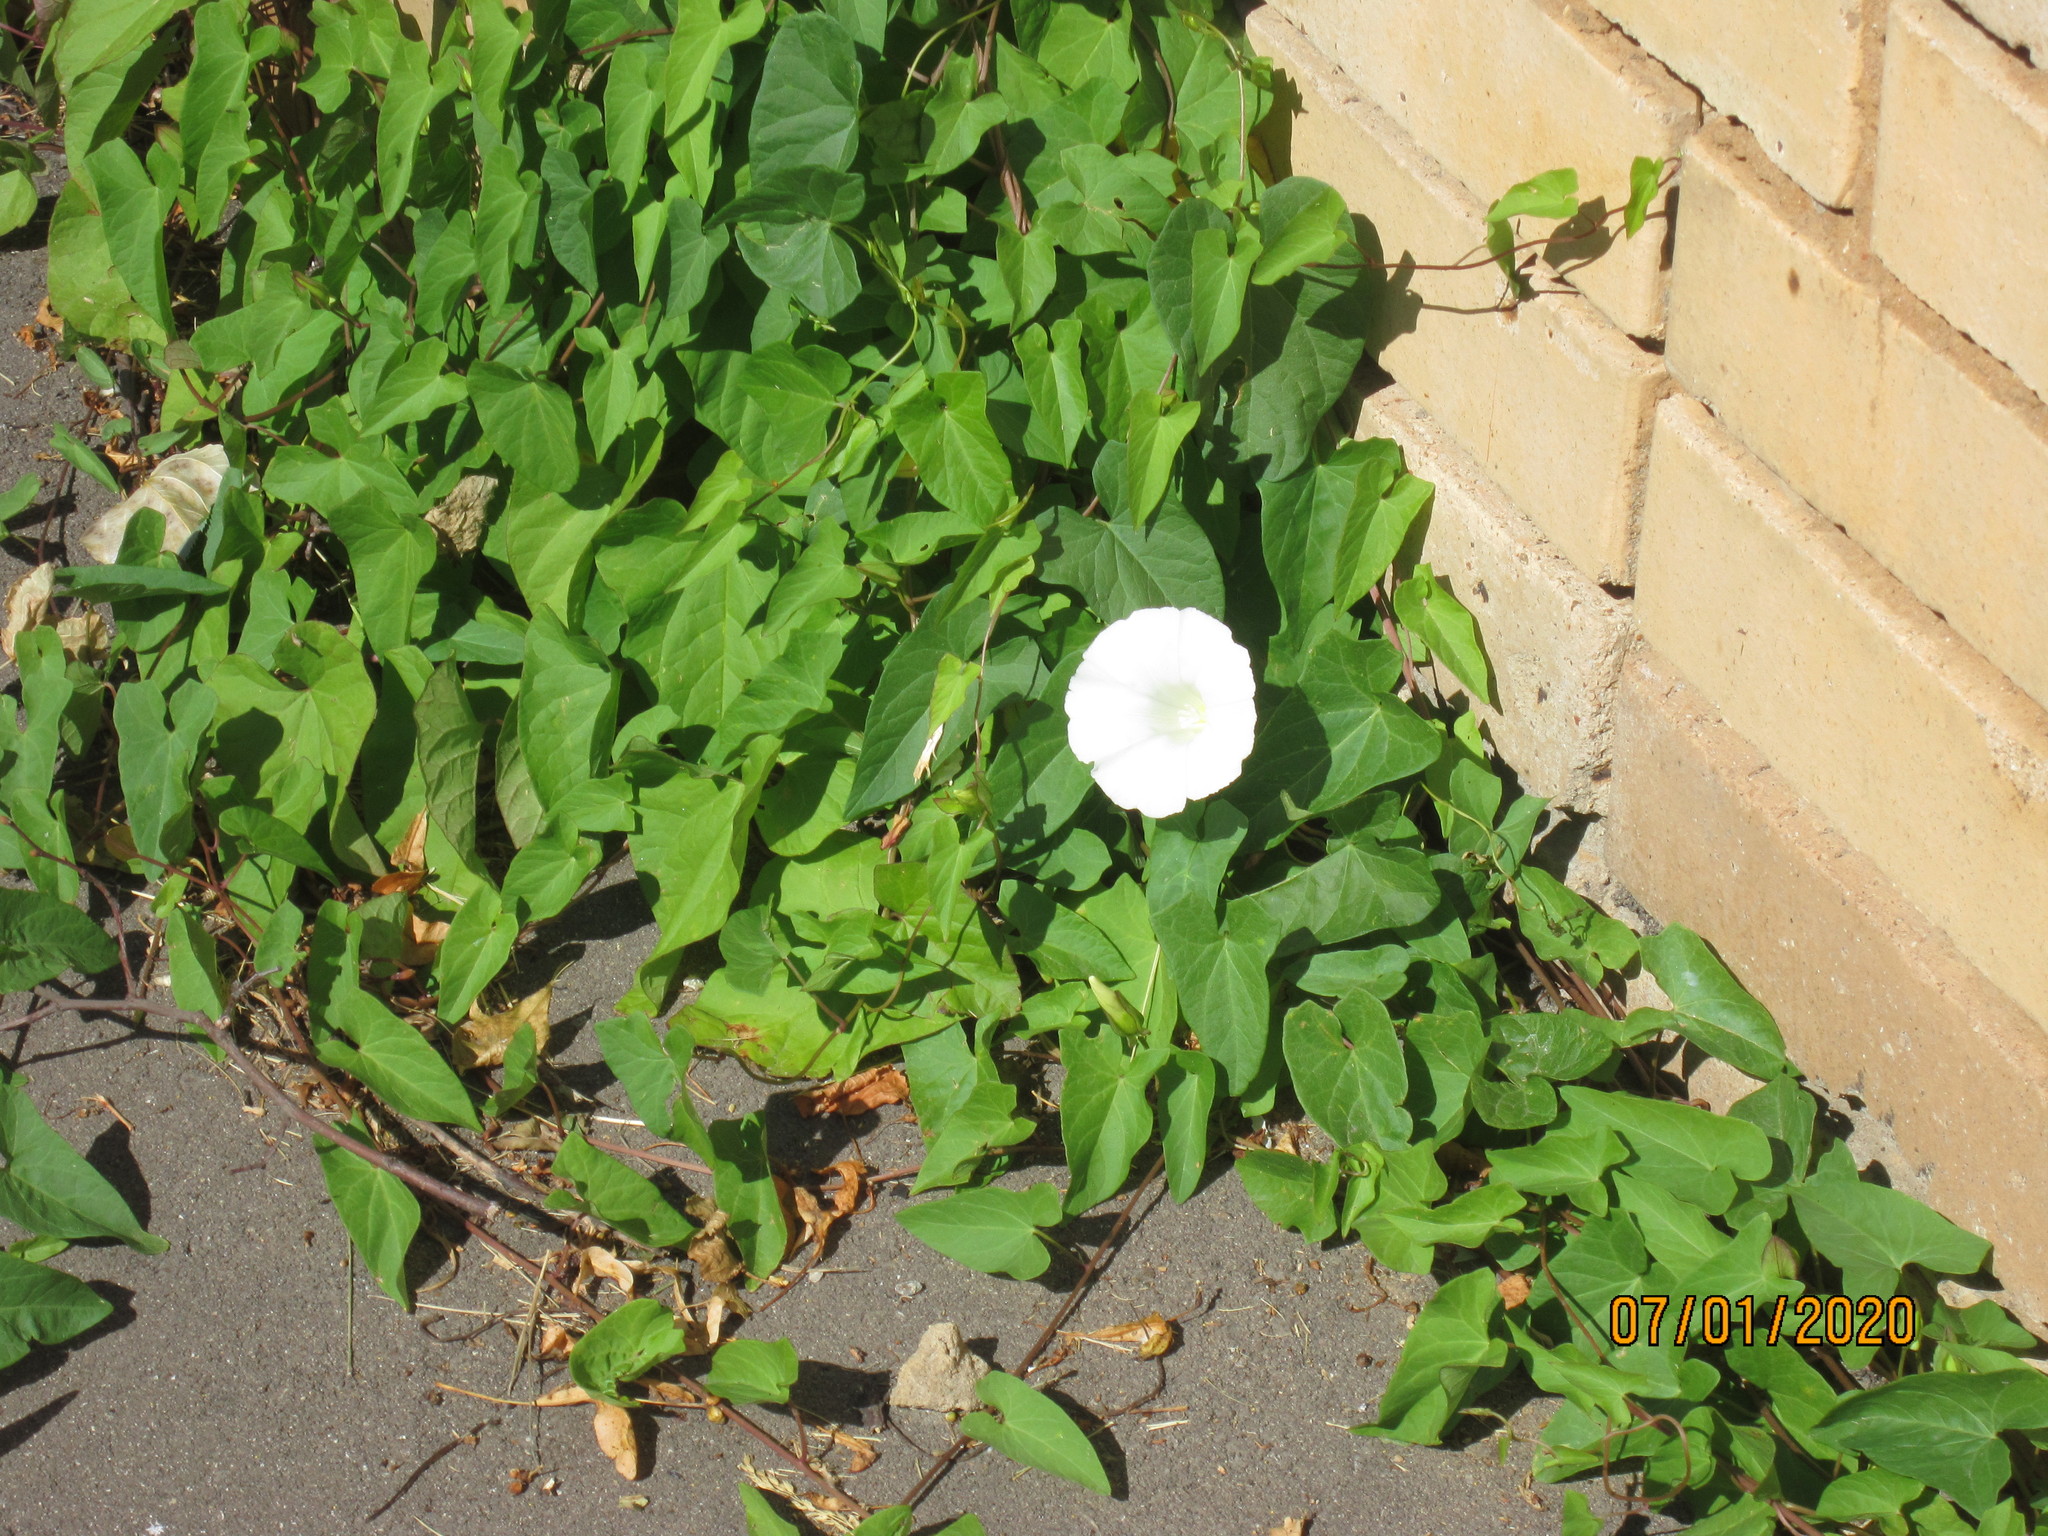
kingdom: Plantae
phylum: Tracheophyta
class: Magnoliopsida
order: Solanales
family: Convolvulaceae
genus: Calystegia
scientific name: Calystegia sepium
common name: Hedge bindweed
